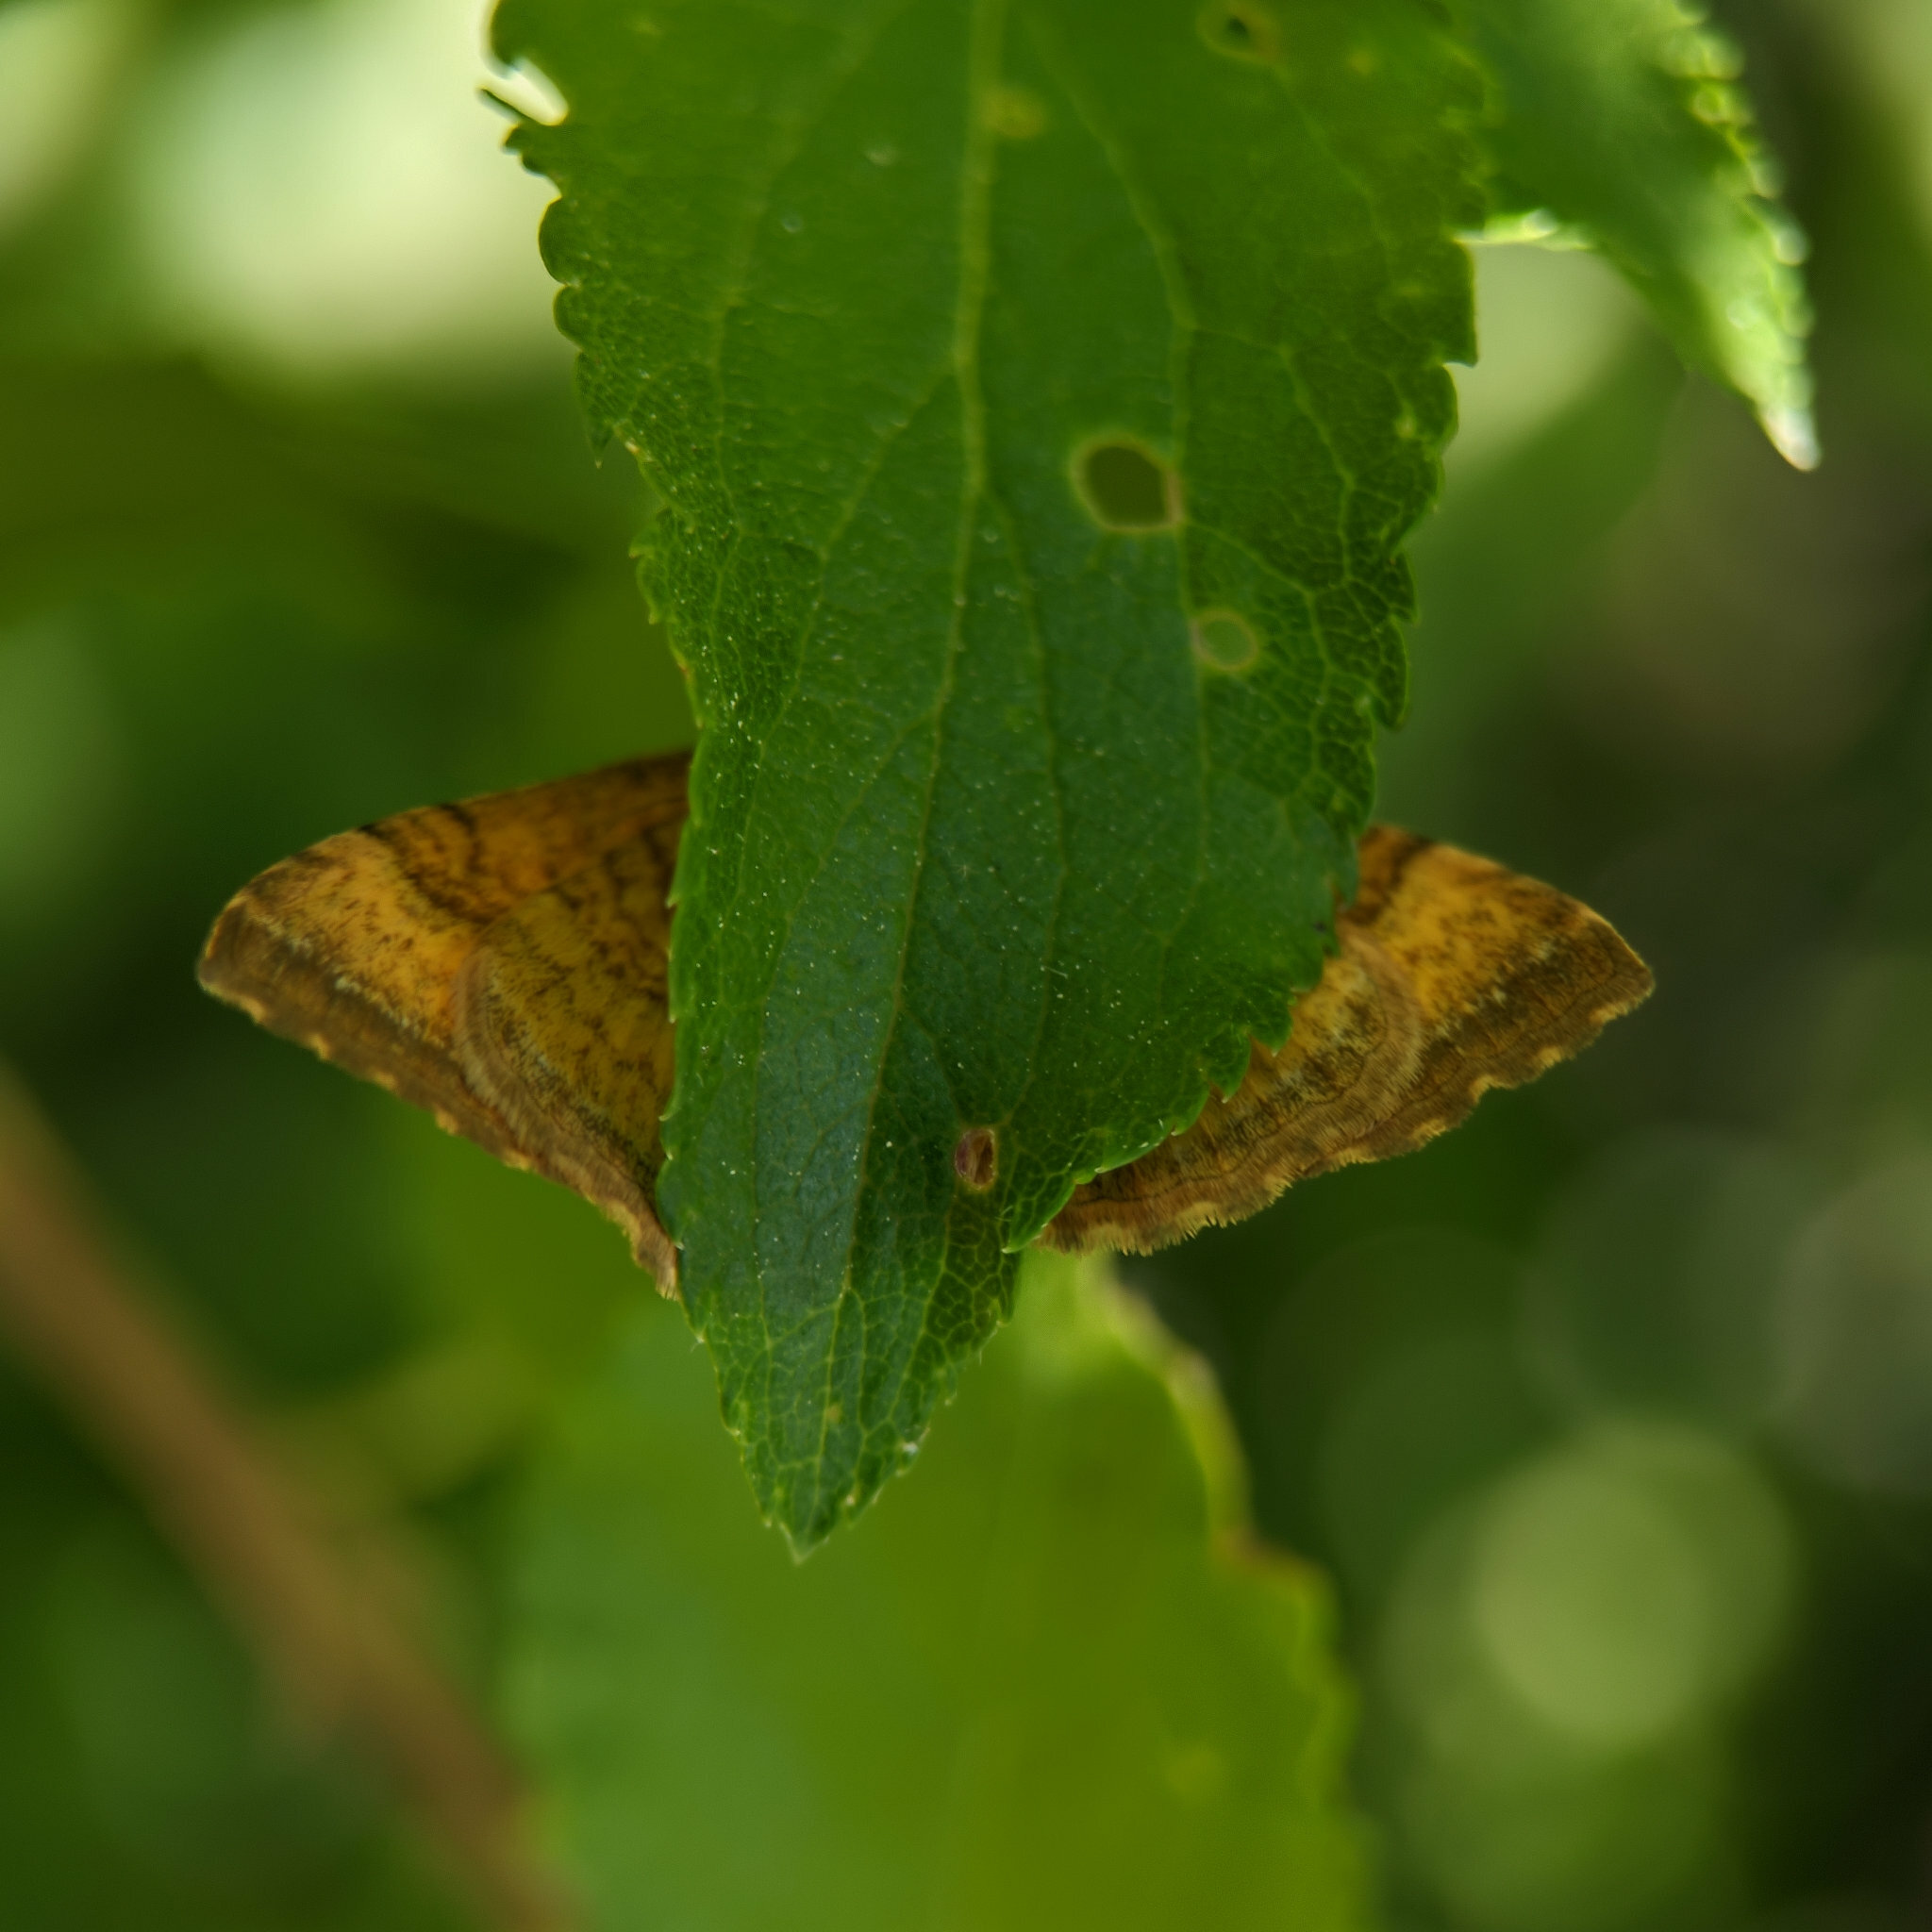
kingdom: Animalia
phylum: Arthropoda
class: Insecta
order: Lepidoptera
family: Geometridae
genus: Camptogramma
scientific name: Camptogramma bilineata
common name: Yellow shell
